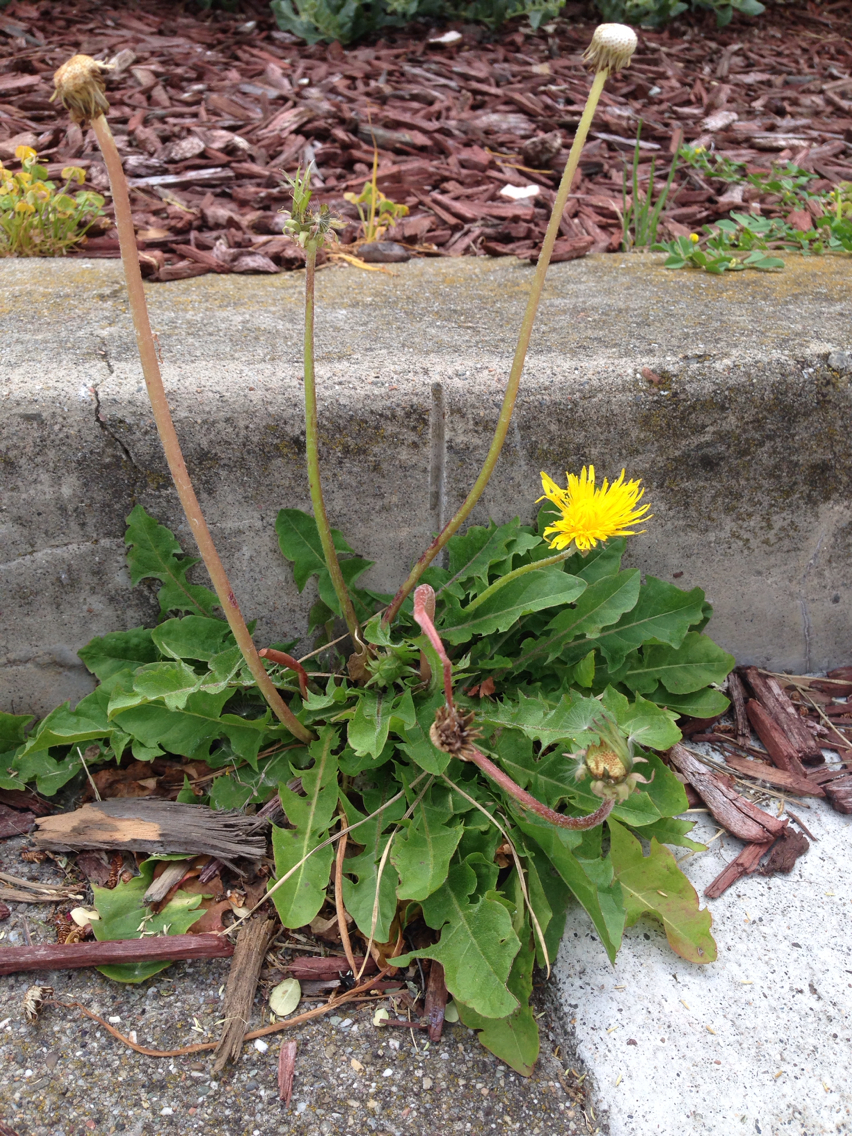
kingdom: Plantae
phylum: Tracheophyta
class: Magnoliopsida
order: Asterales
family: Asteraceae
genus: Taraxacum
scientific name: Taraxacum officinale
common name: Common dandelion
